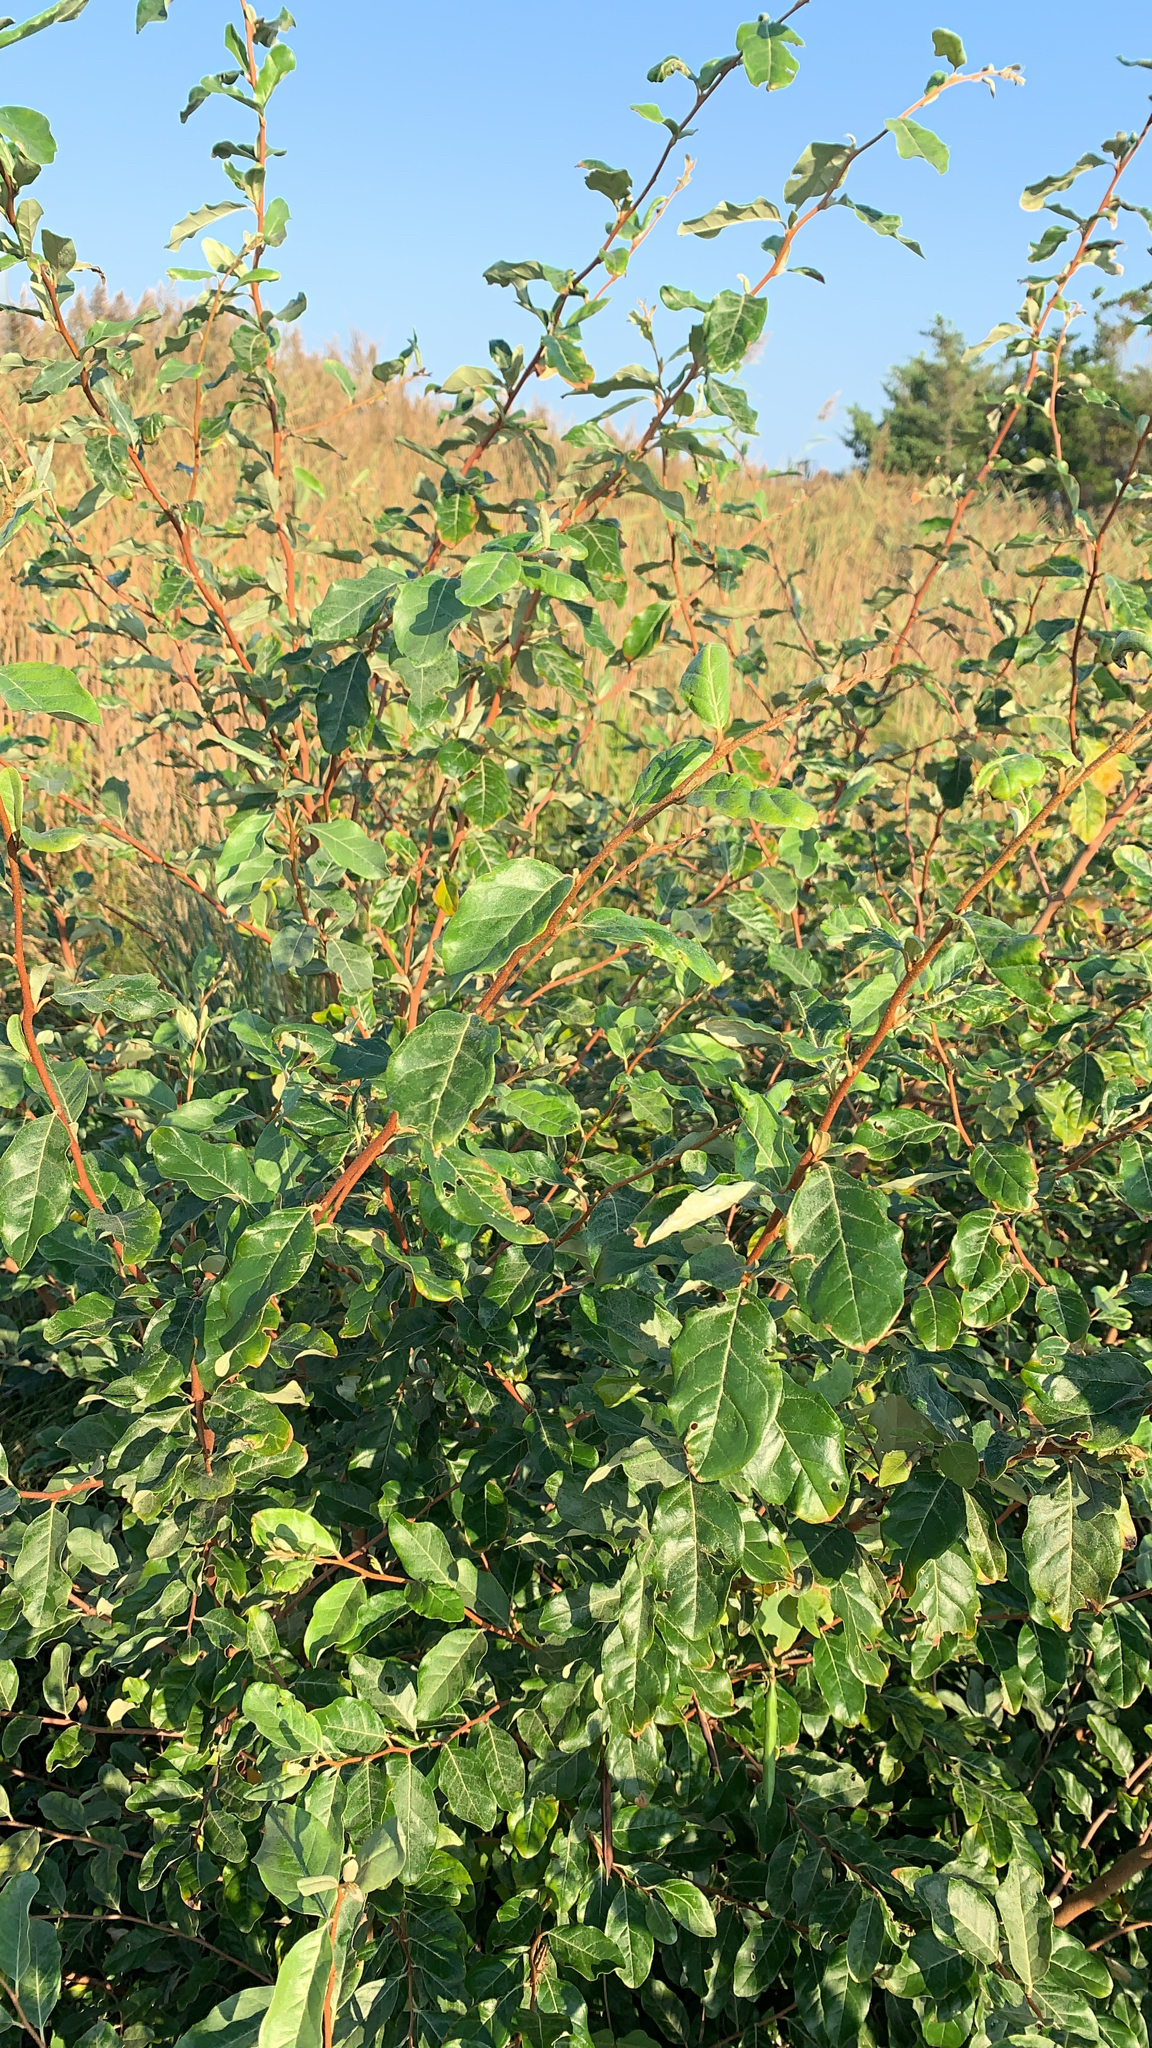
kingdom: Plantae
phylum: Tracheophyta
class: Magnoliopsida
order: Rosales
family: Elaeagnaceae
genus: Elaeagnus
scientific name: Elaeagnus umbellata
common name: Autumn olive
